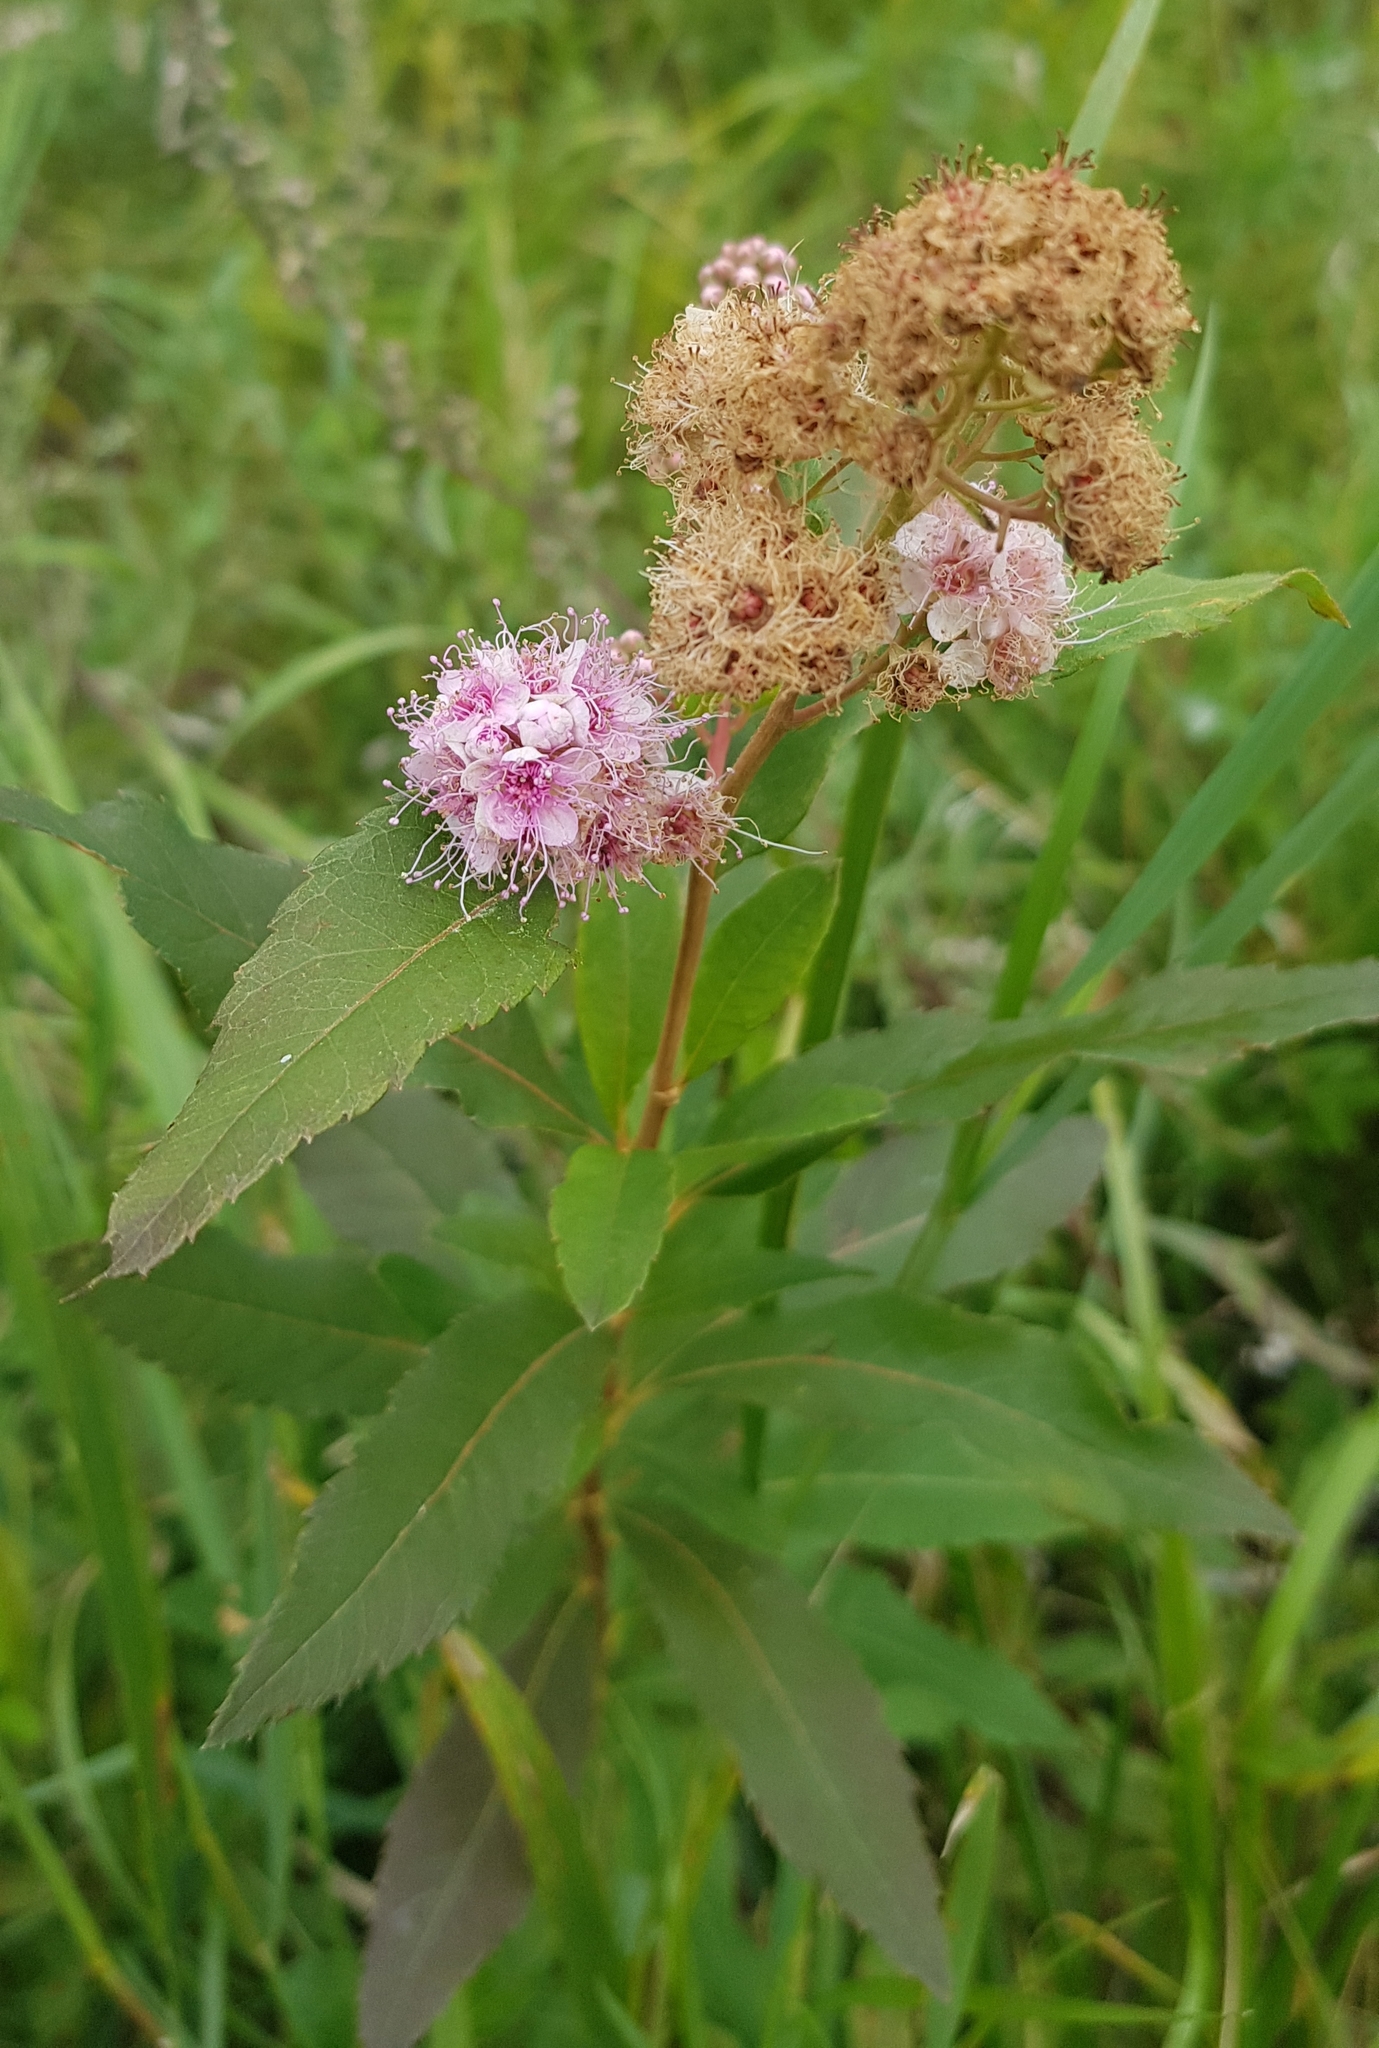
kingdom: Plantae
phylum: Tracheophyta
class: Magnoliopsida
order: Rosales
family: Rosaceae
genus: Spiraea
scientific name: Spiraea salicifolia
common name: Bridewort
